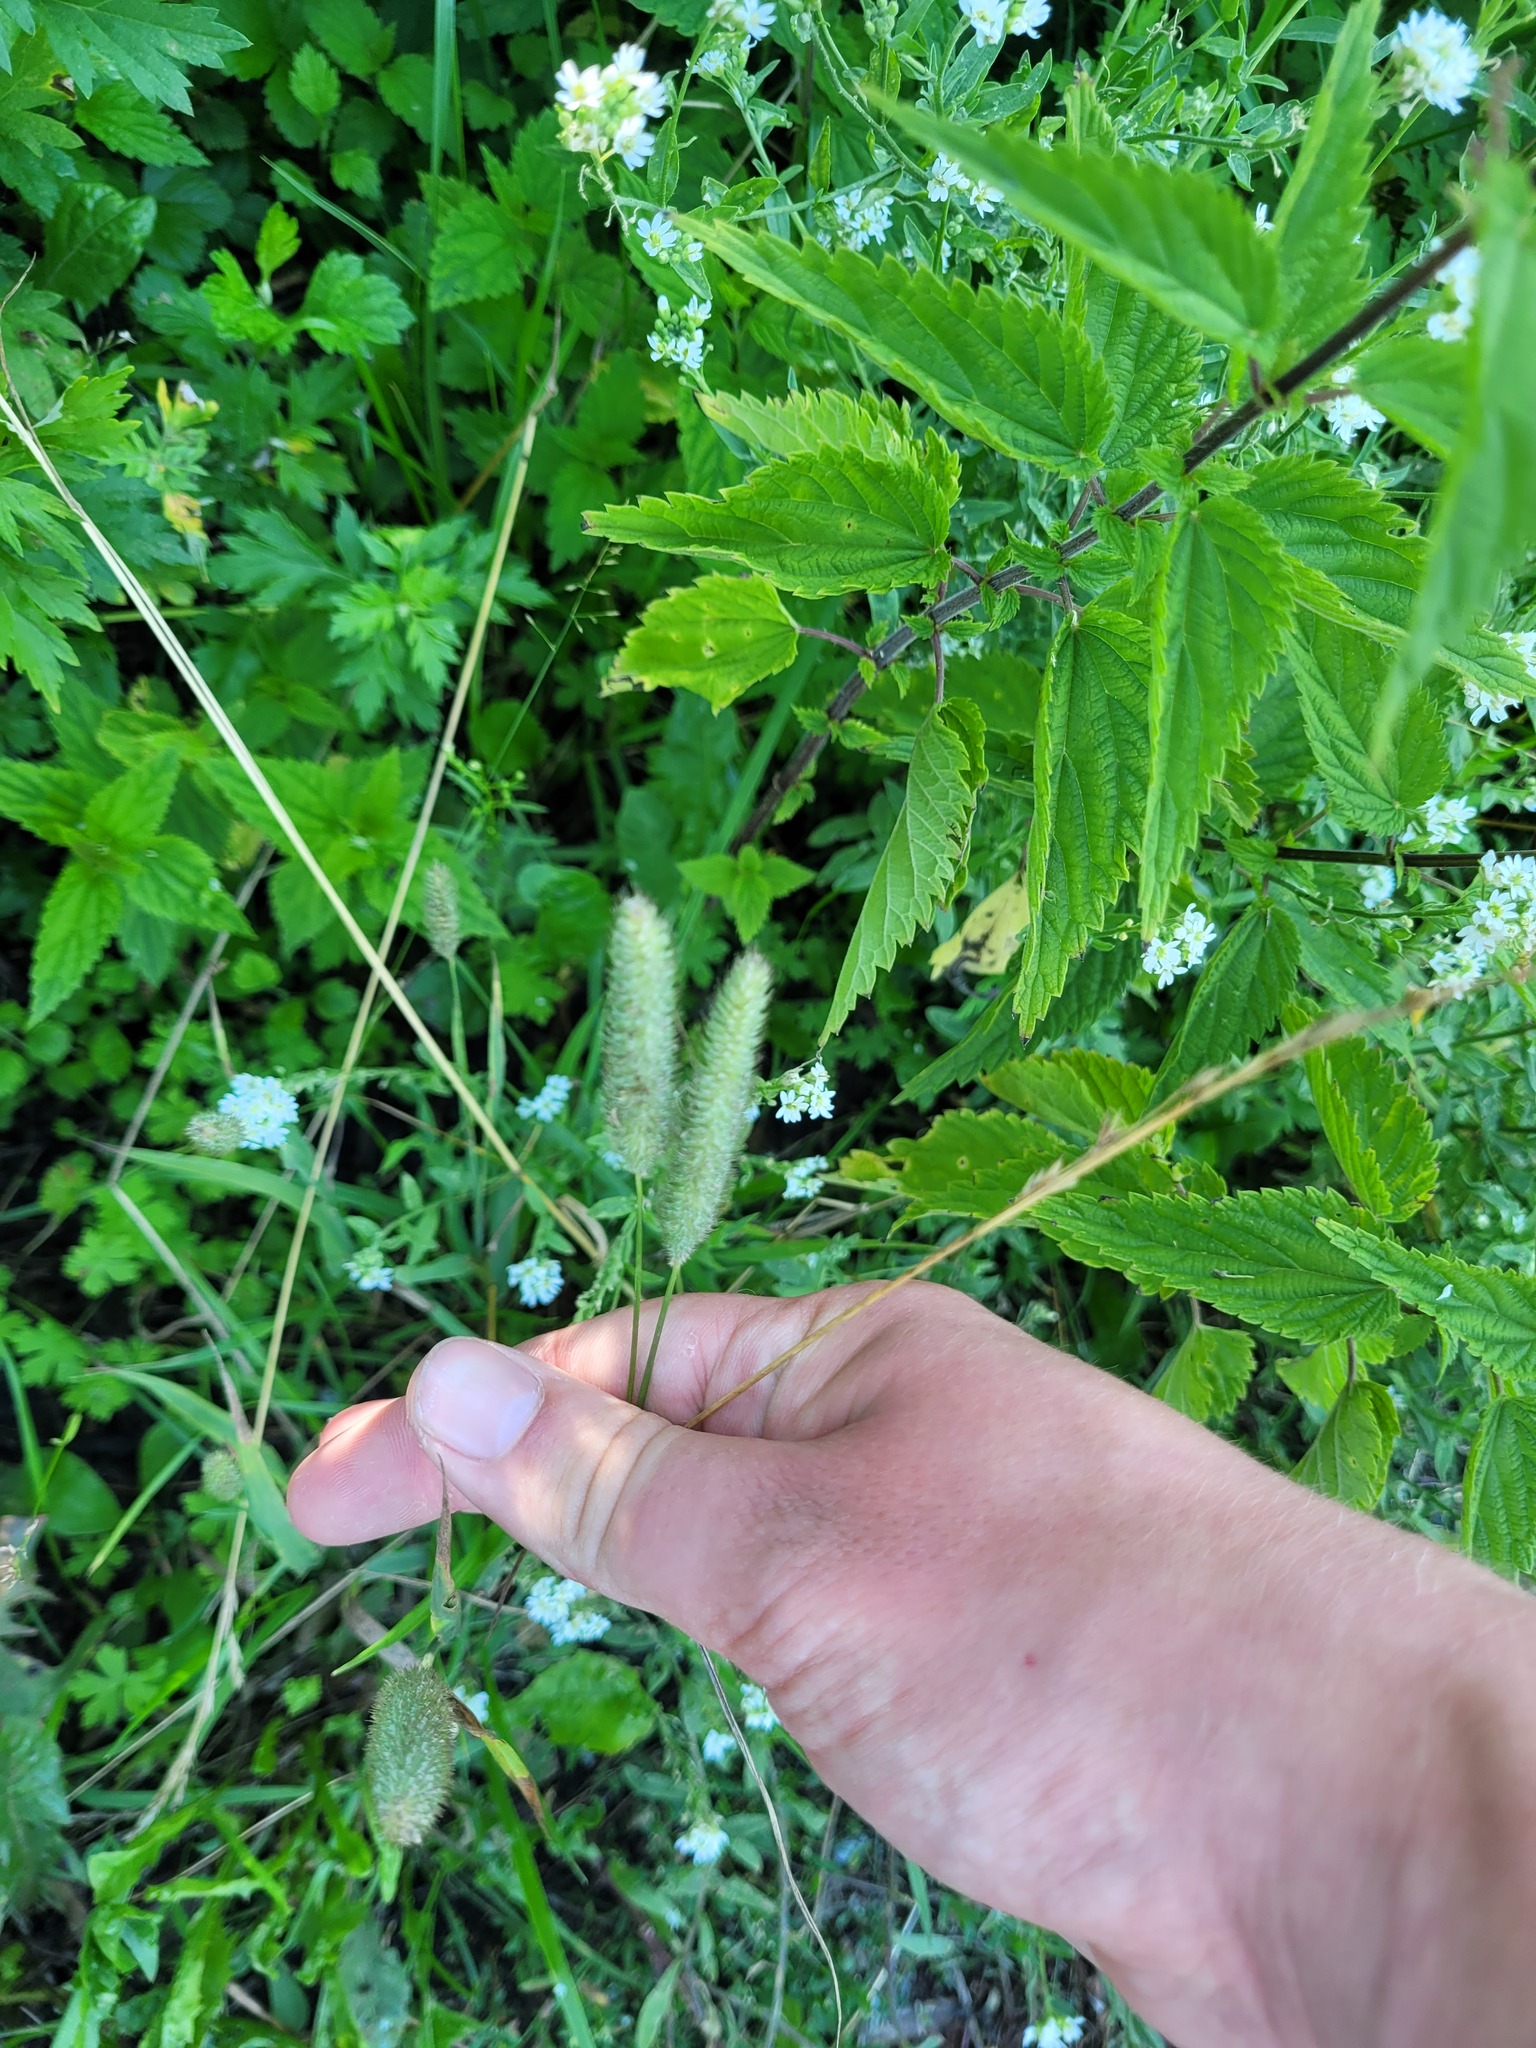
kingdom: Plantae
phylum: Tracheophyta
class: Liliopsida
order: Poales
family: Poaceae
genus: Phleum
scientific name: Phleum pratense
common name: Timothy grass
